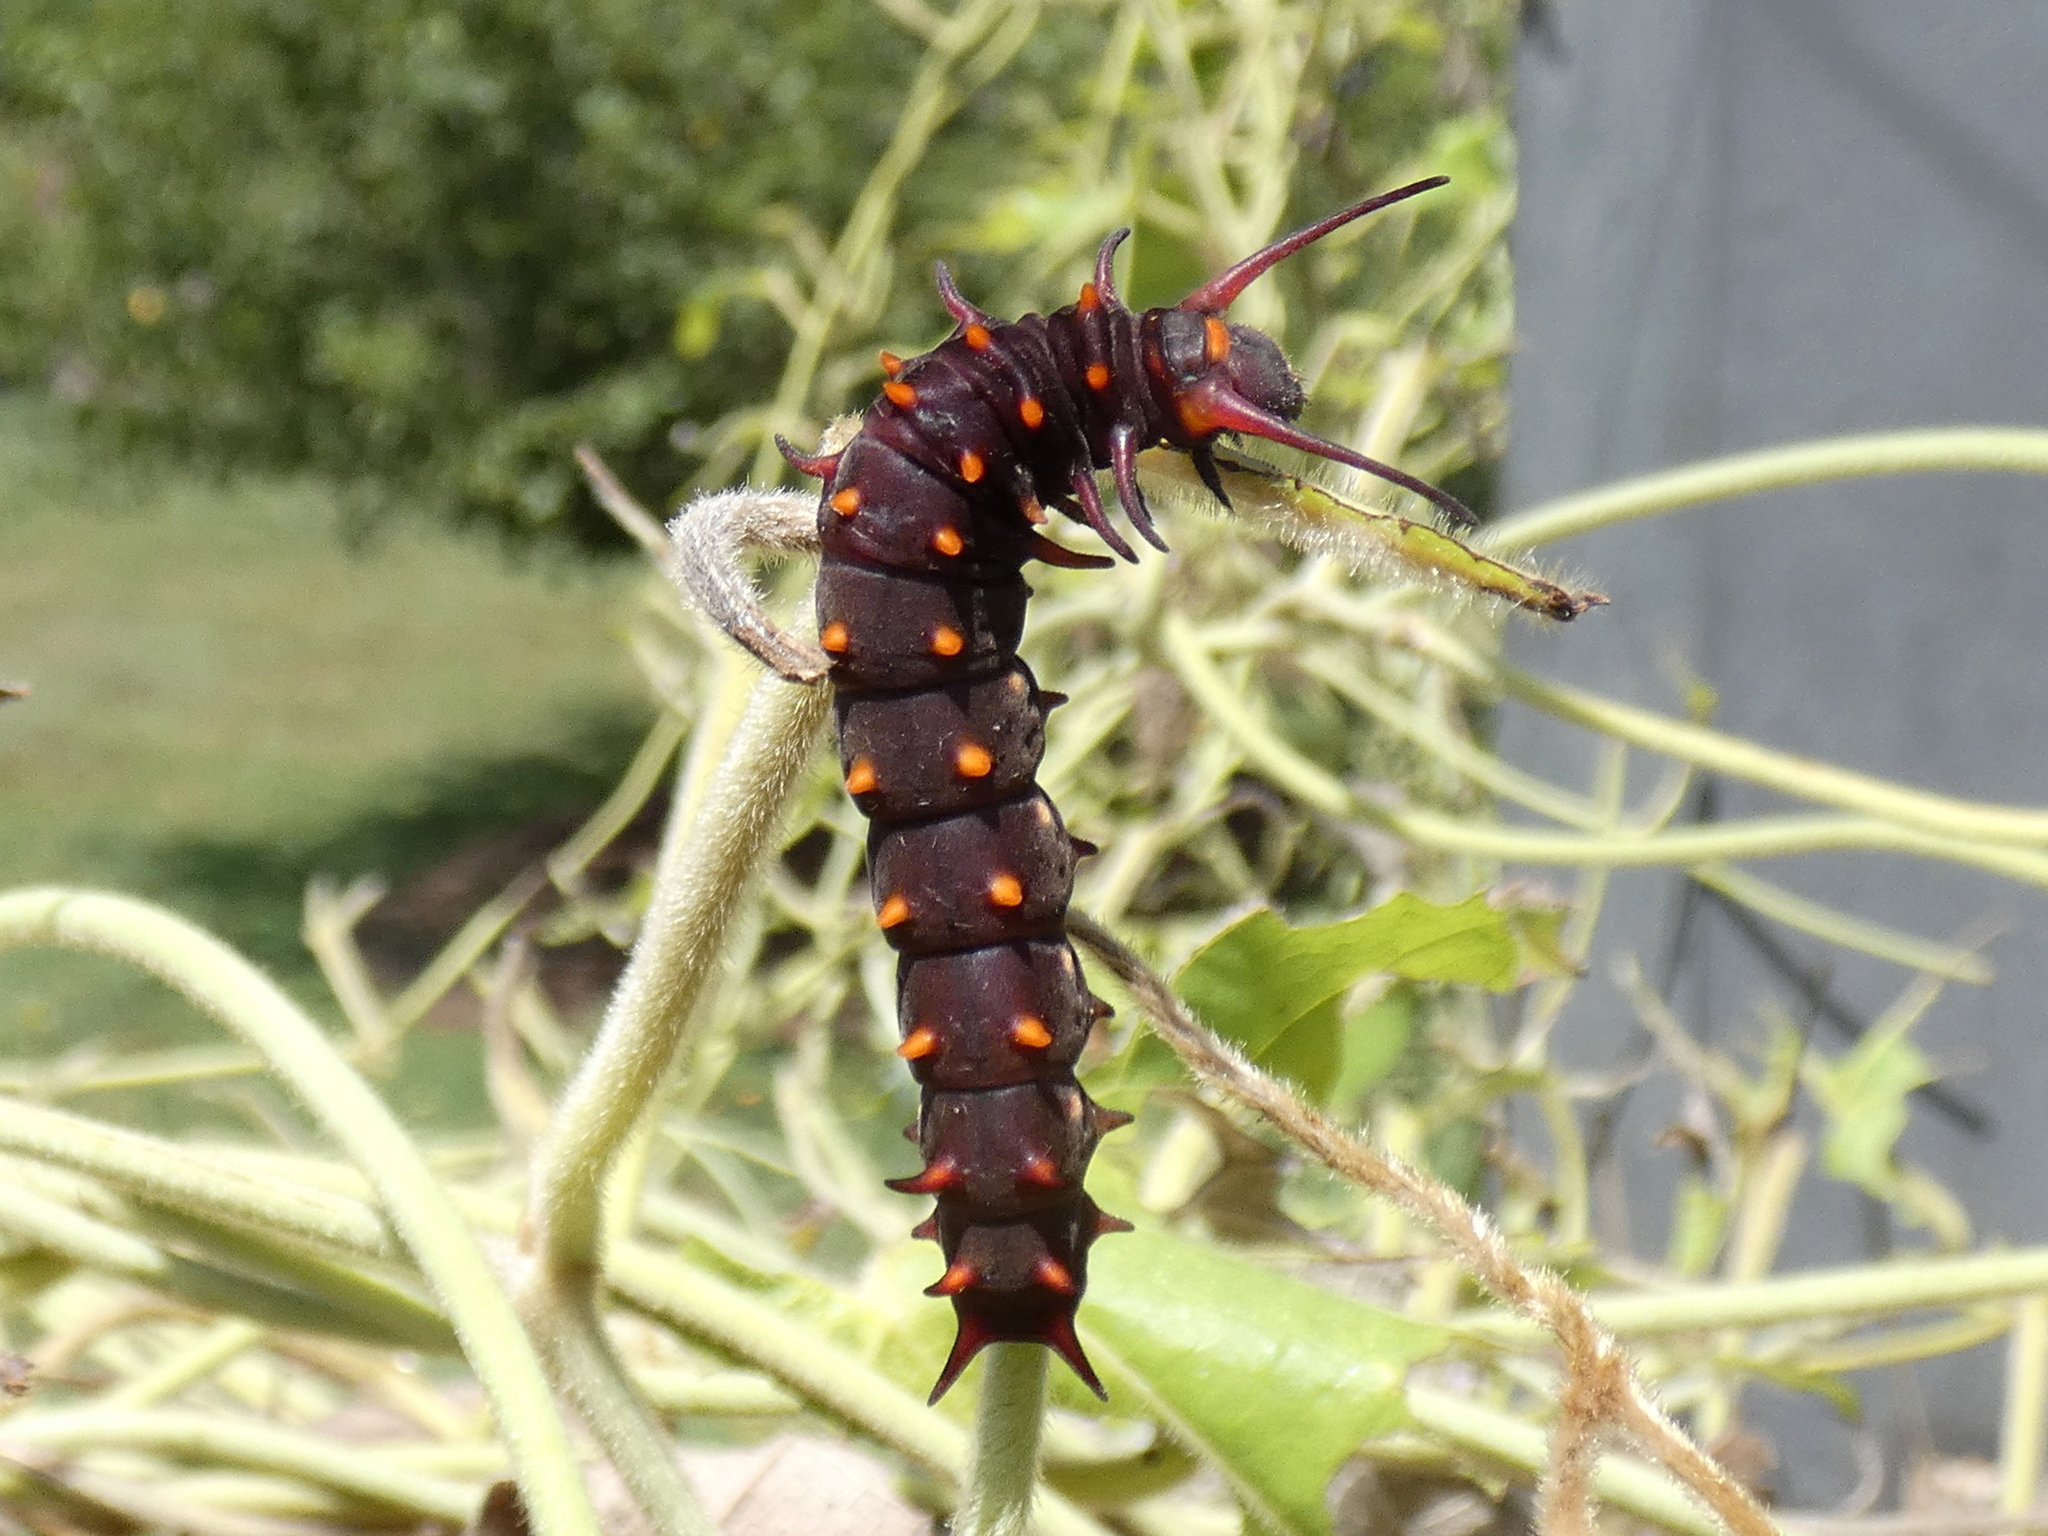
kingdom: Animalia
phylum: Arthropoda
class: Insecta
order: Lepidoptera
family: Papilionidae
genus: Battus
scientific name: Battus philenor
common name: Pipevine swallowtail
